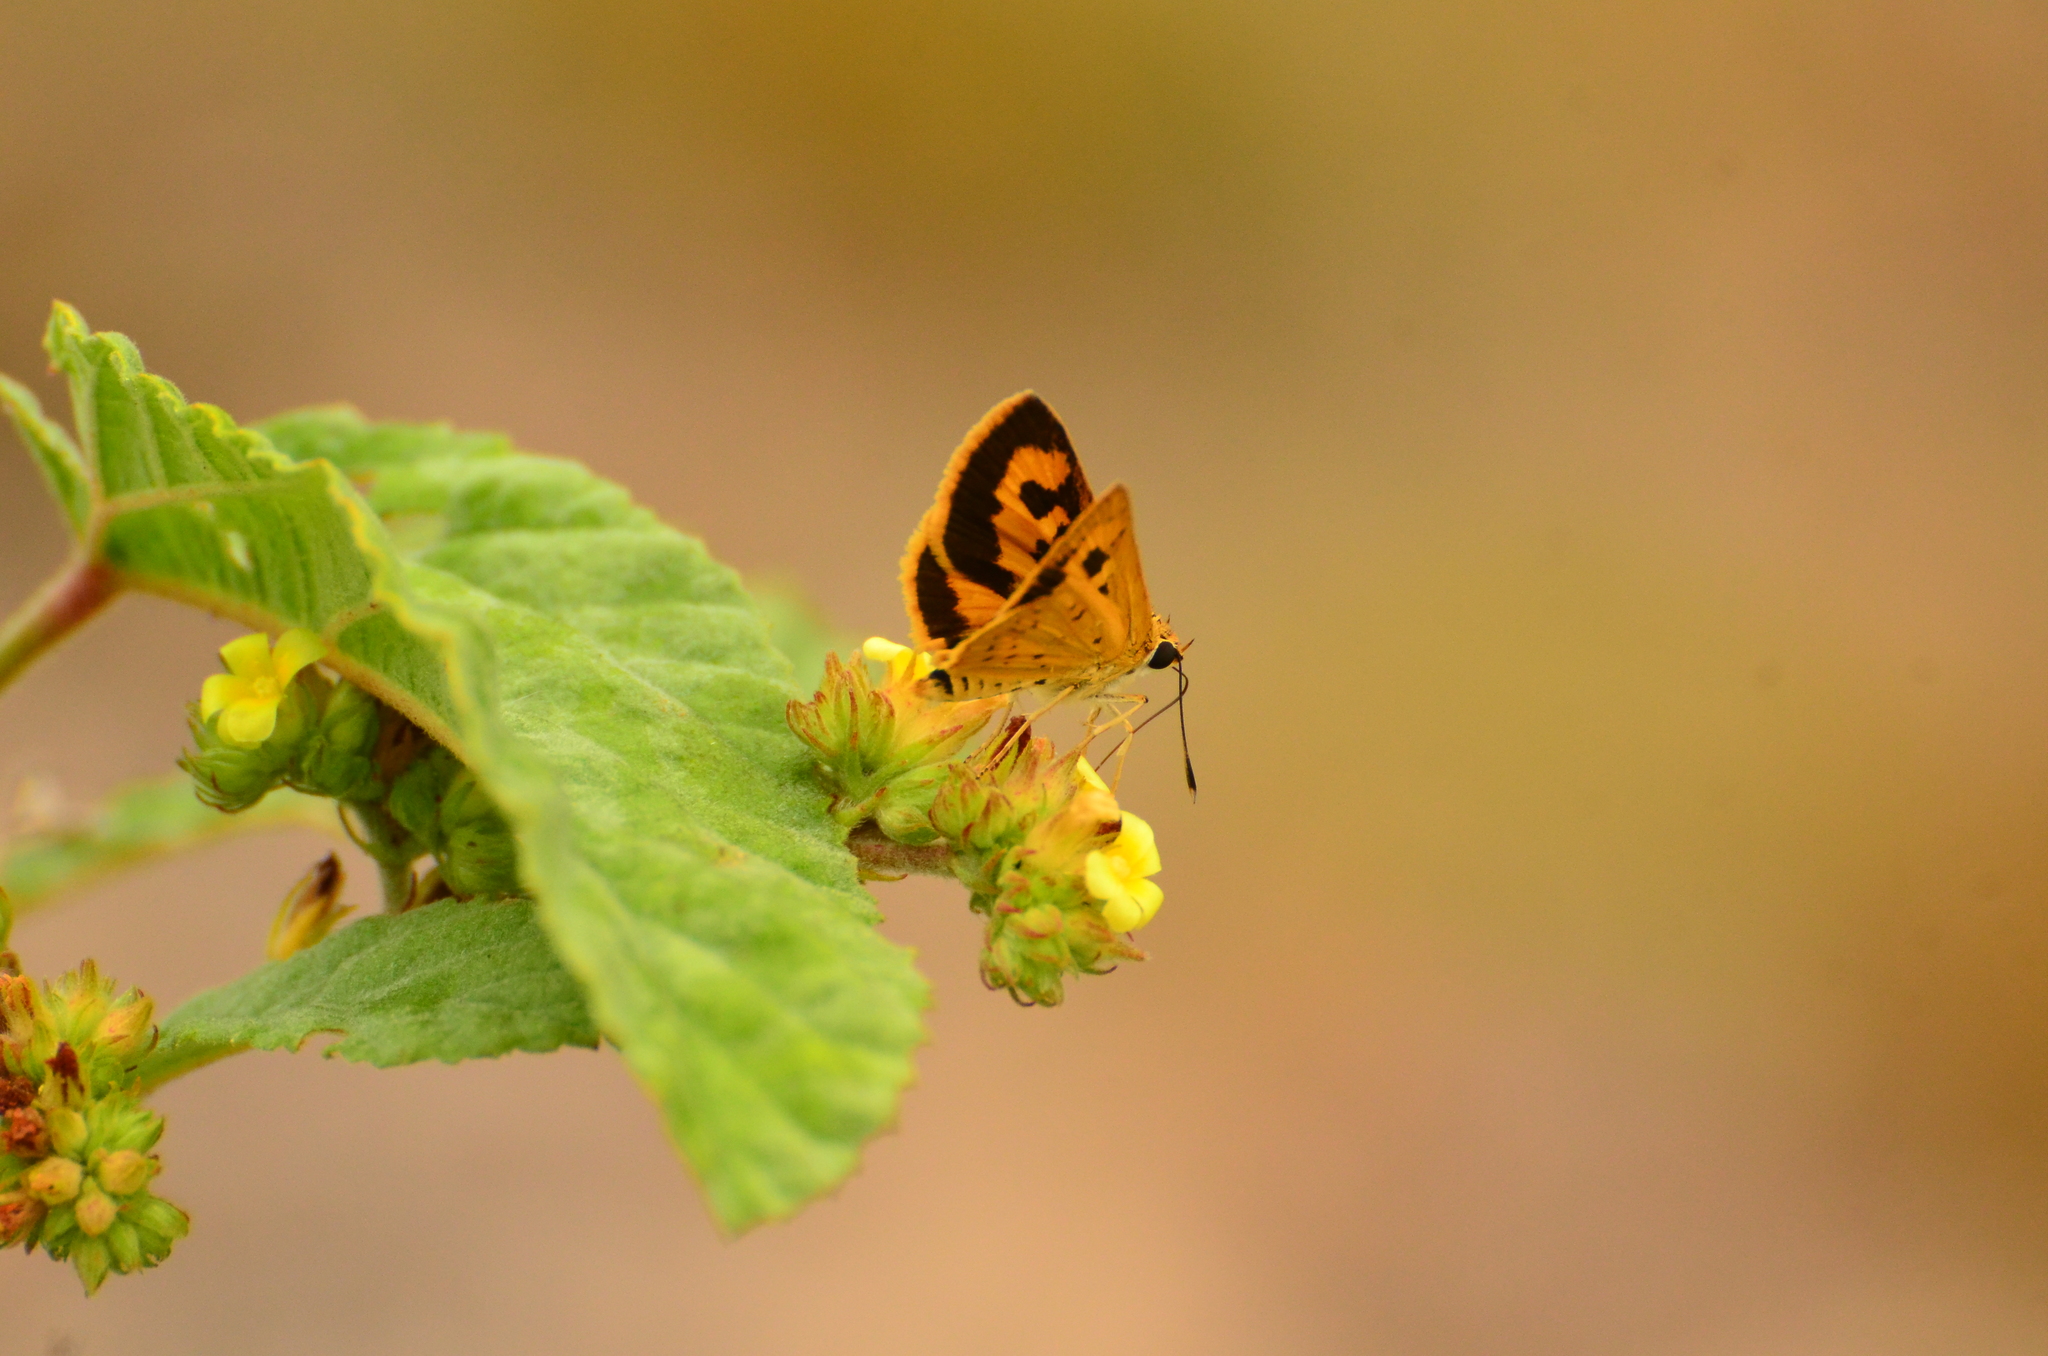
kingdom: Animalia
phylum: Arthropoda
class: Insecta
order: Lepidoptera
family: Hesperiidae
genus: Acada
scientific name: Acada biseriatus
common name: Axehead orange
